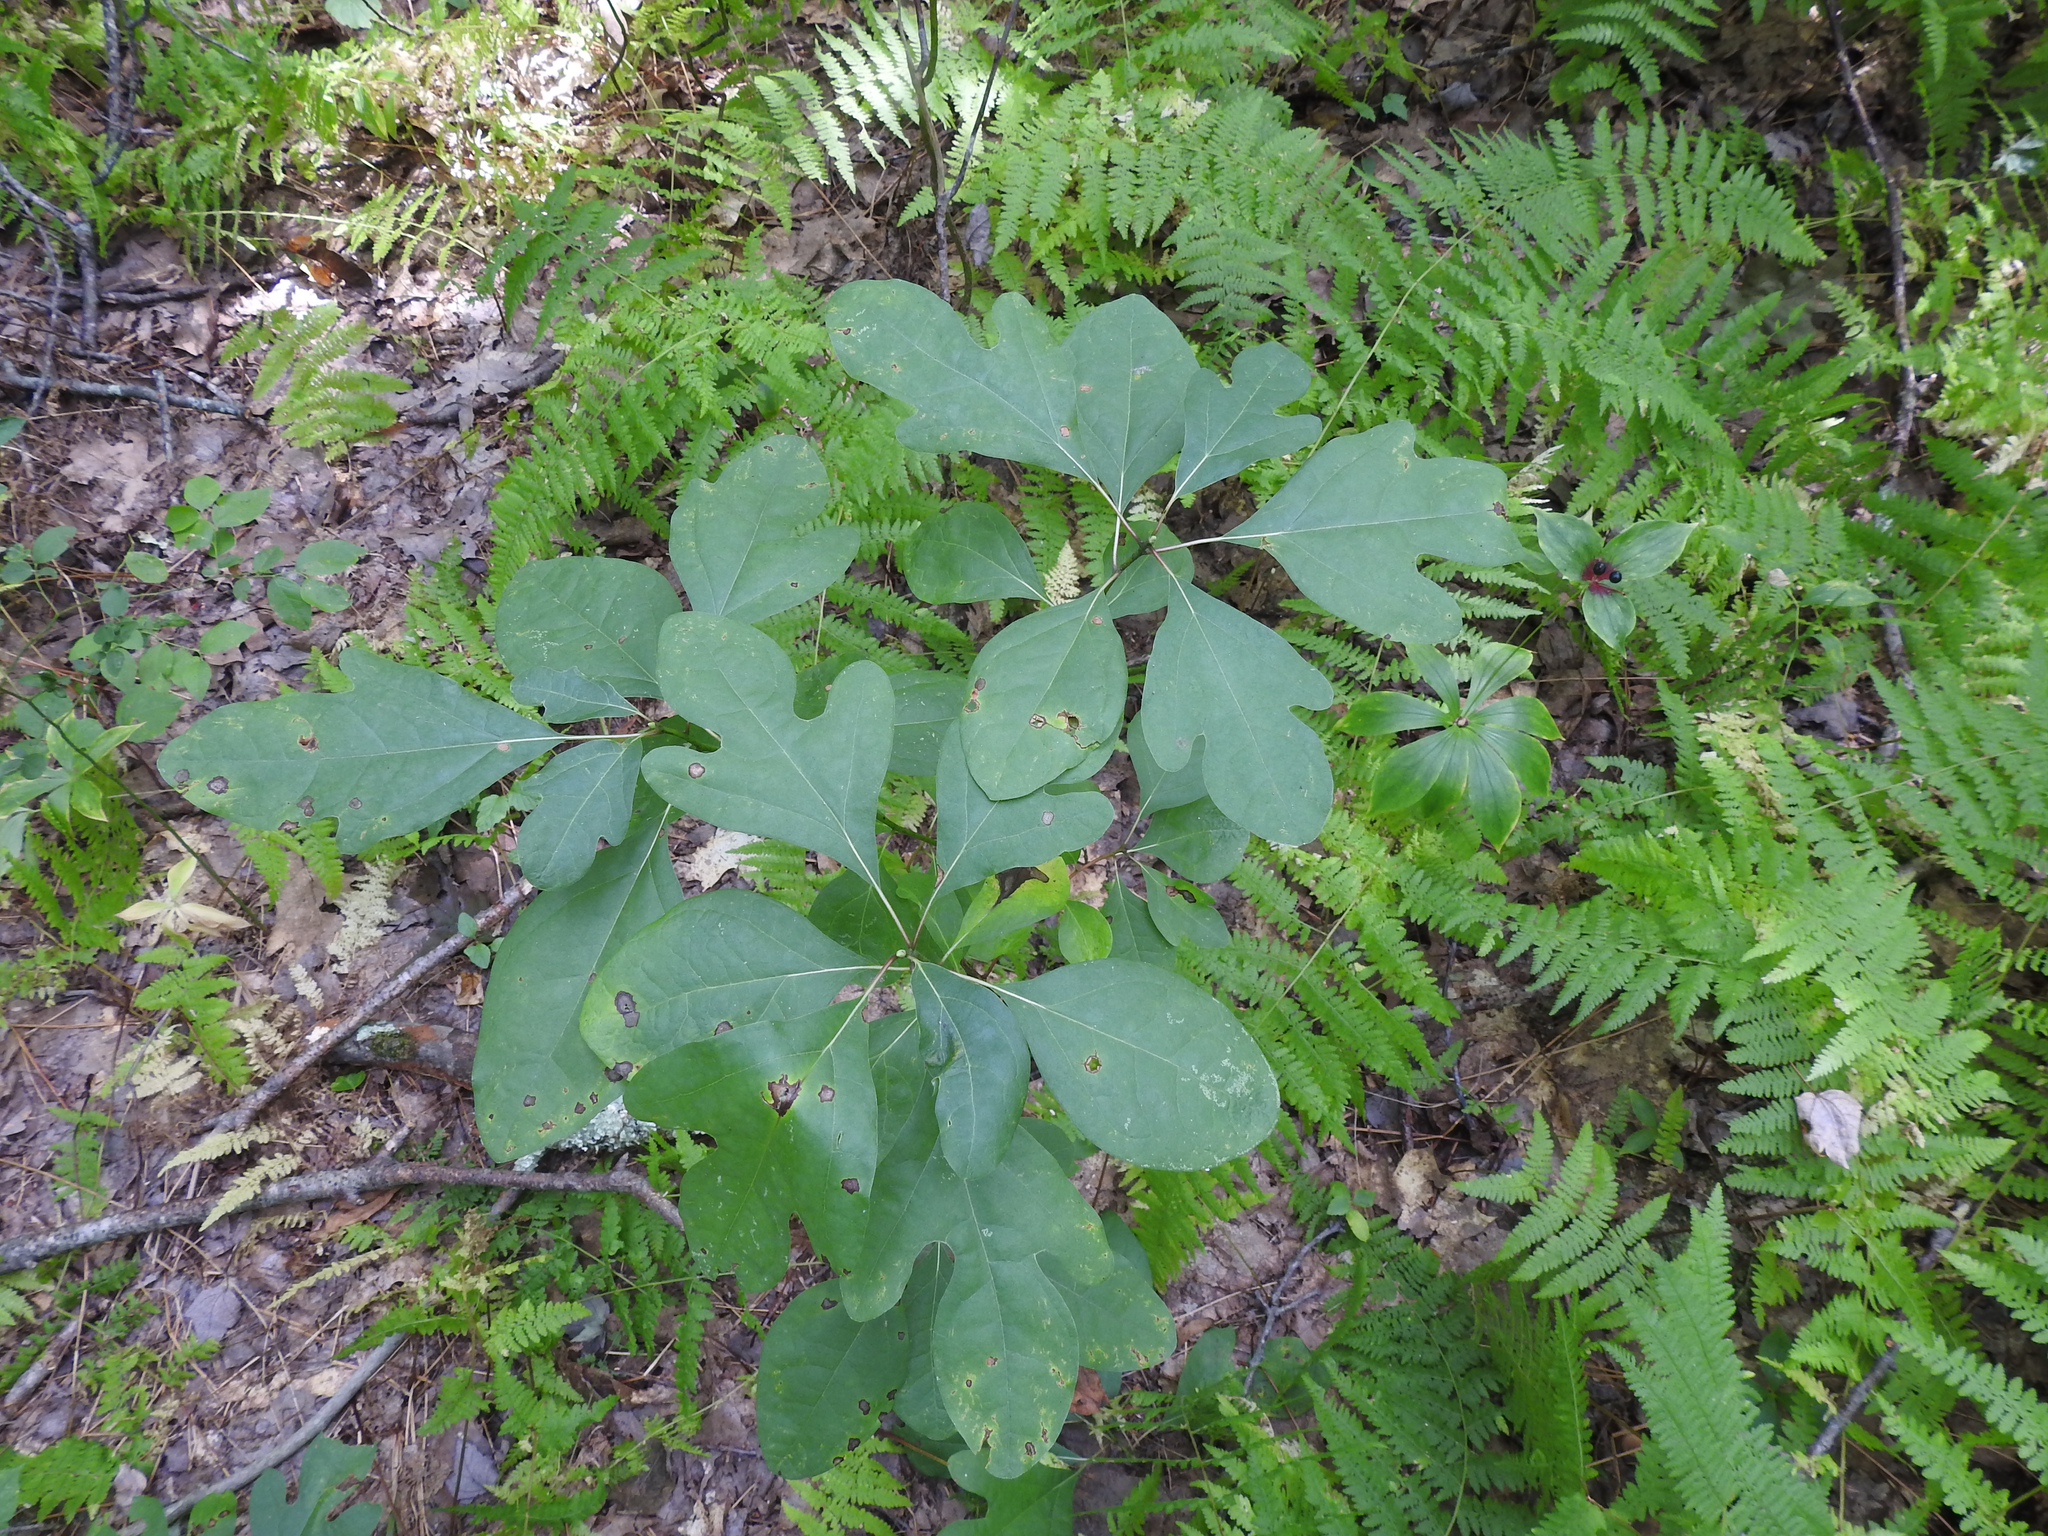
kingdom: Plantae
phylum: Tracheophyta
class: Magnoliopsida
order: Laurales
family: Lauraceae
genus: Sassafras
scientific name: Sassafras albidum
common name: Sassafras
